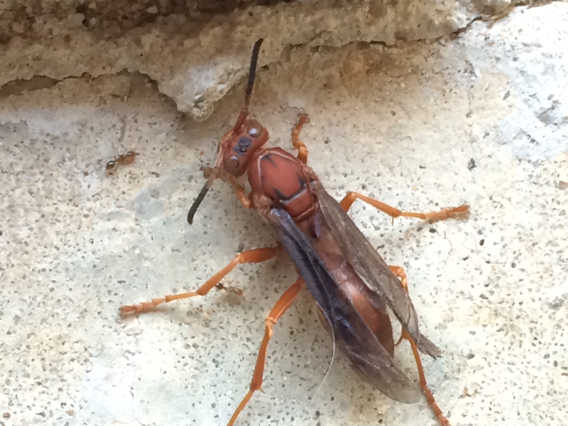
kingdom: Animalia
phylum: Arthropoda
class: Insecta
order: Hymenoptera
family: Eumenidae
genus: Polistes
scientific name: Polistes
